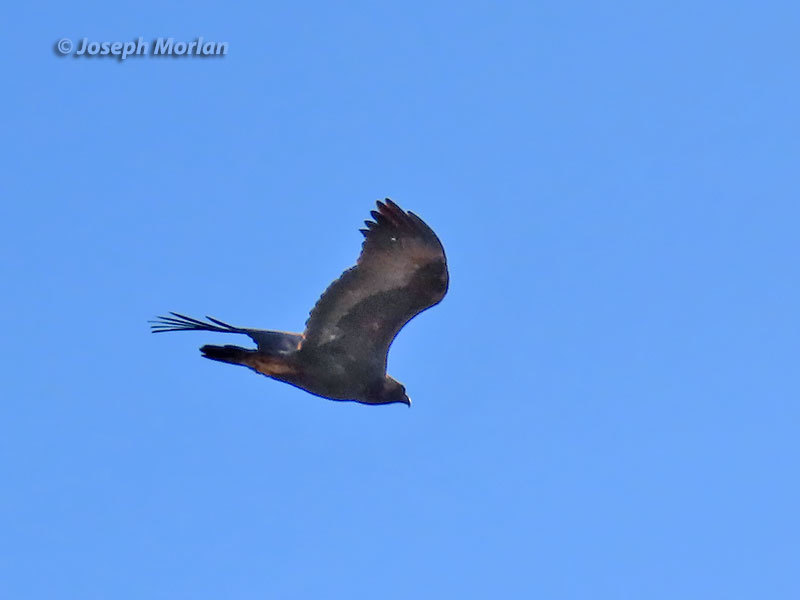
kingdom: Animalia
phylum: Chordata
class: Aves
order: Accipitriformes
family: Accipitridae
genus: Aquila
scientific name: Aquila chrysaetos
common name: Golden eagle
